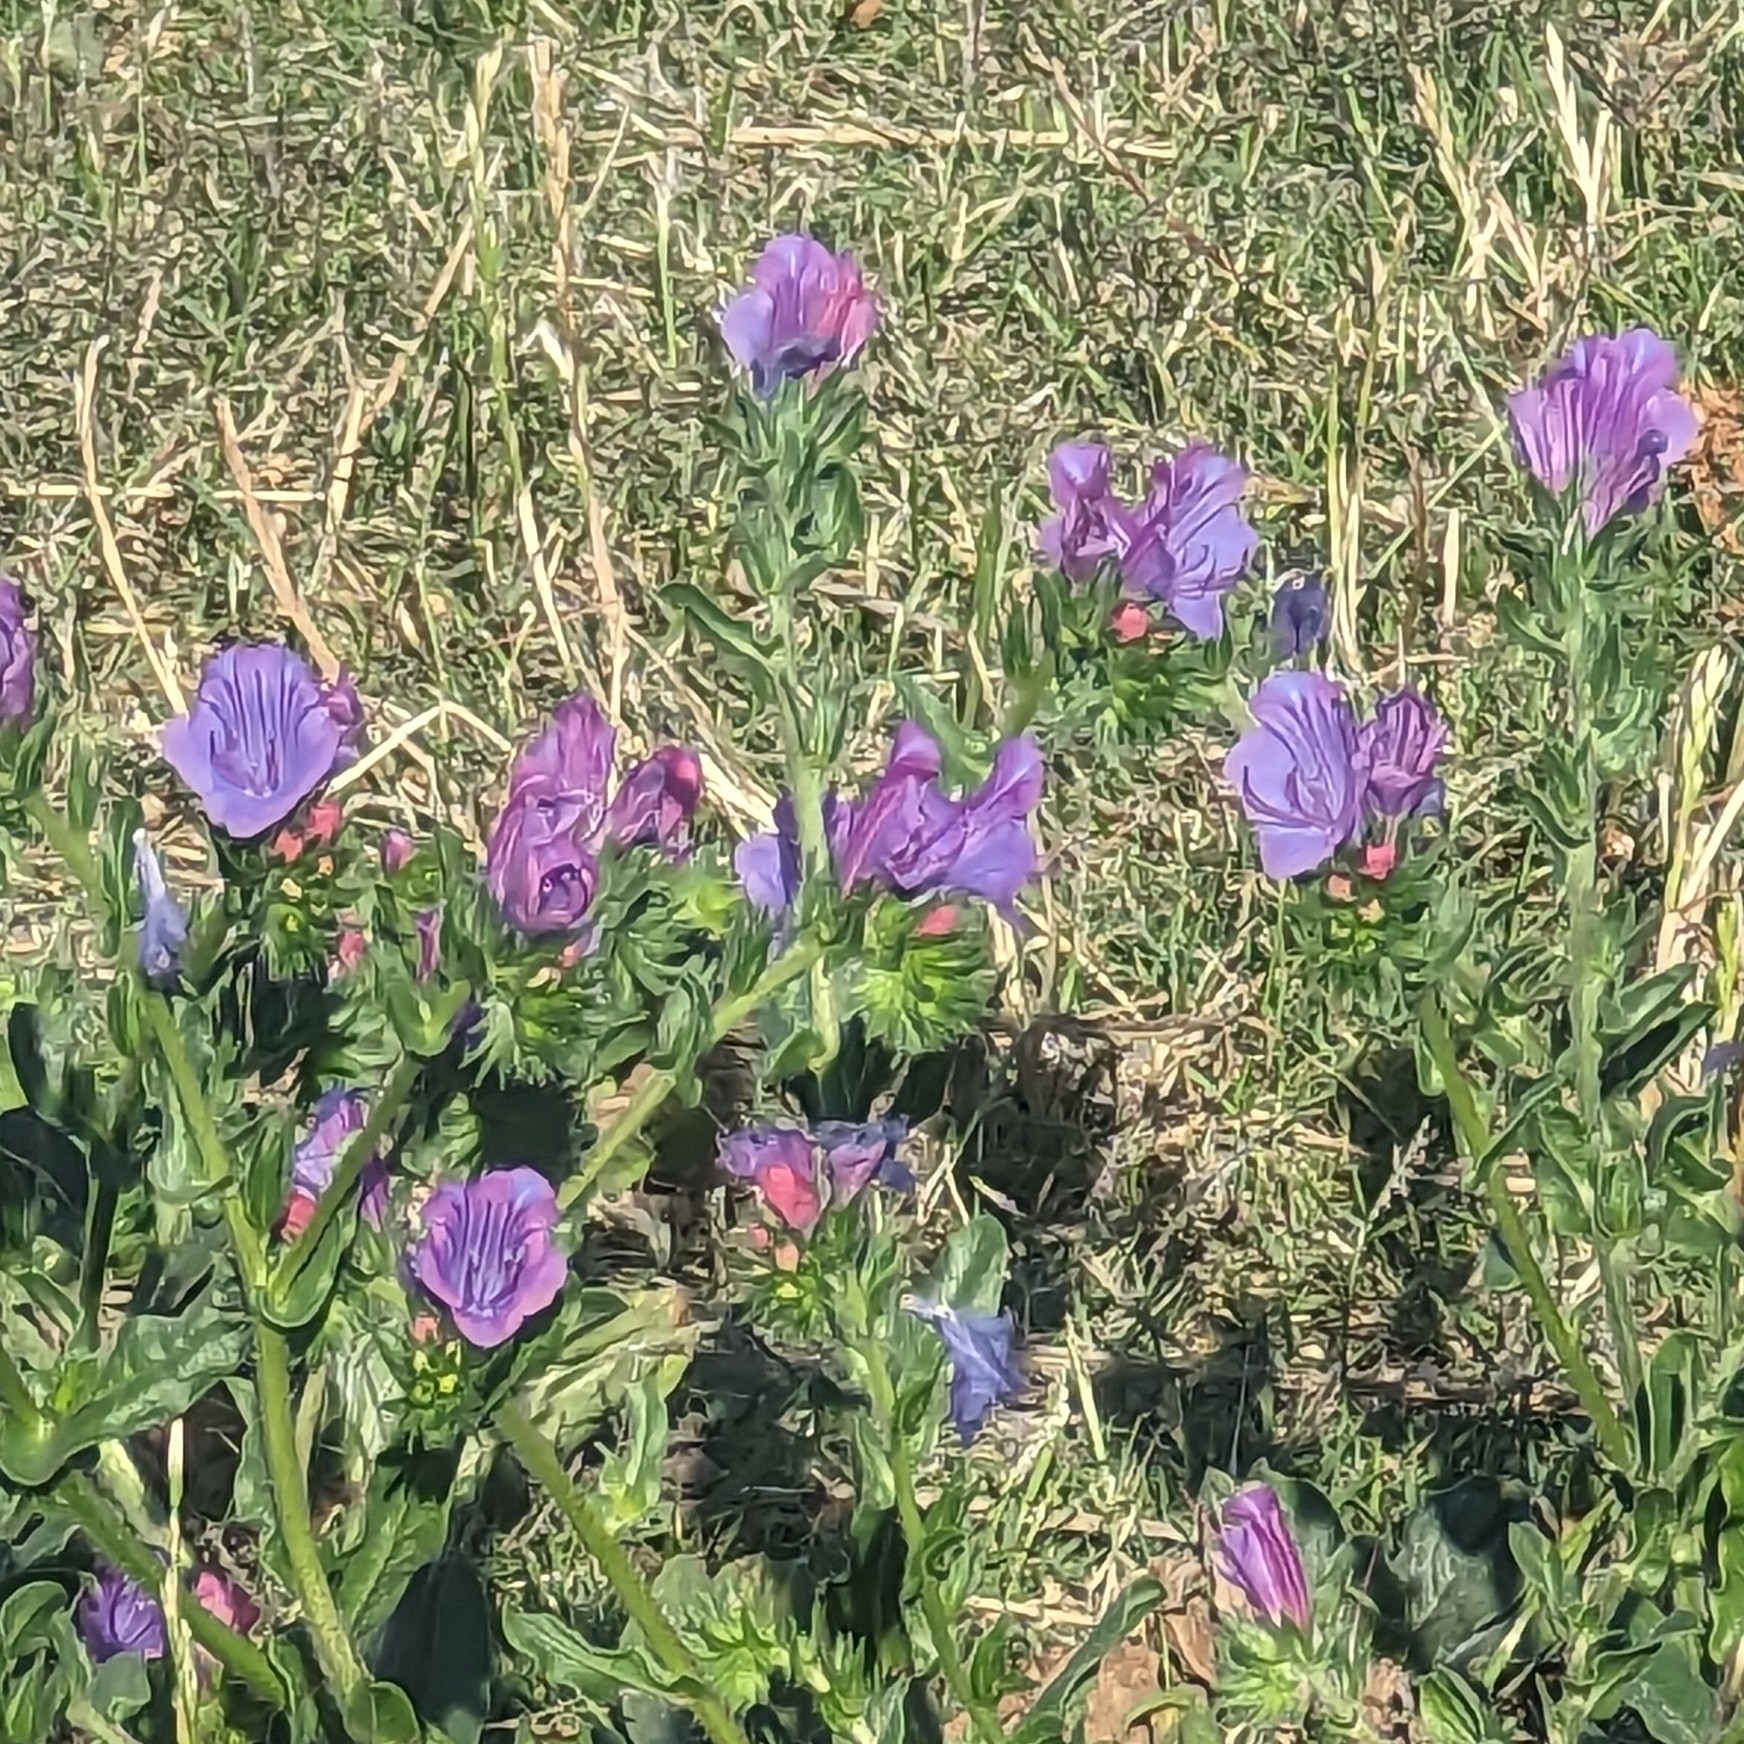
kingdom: Plantae
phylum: Tracheophyta
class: Magnoliopsida
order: Boraginales
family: Boraginaceae
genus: Echium
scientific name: Echium plantagineum
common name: Purple viper's-bugloss
